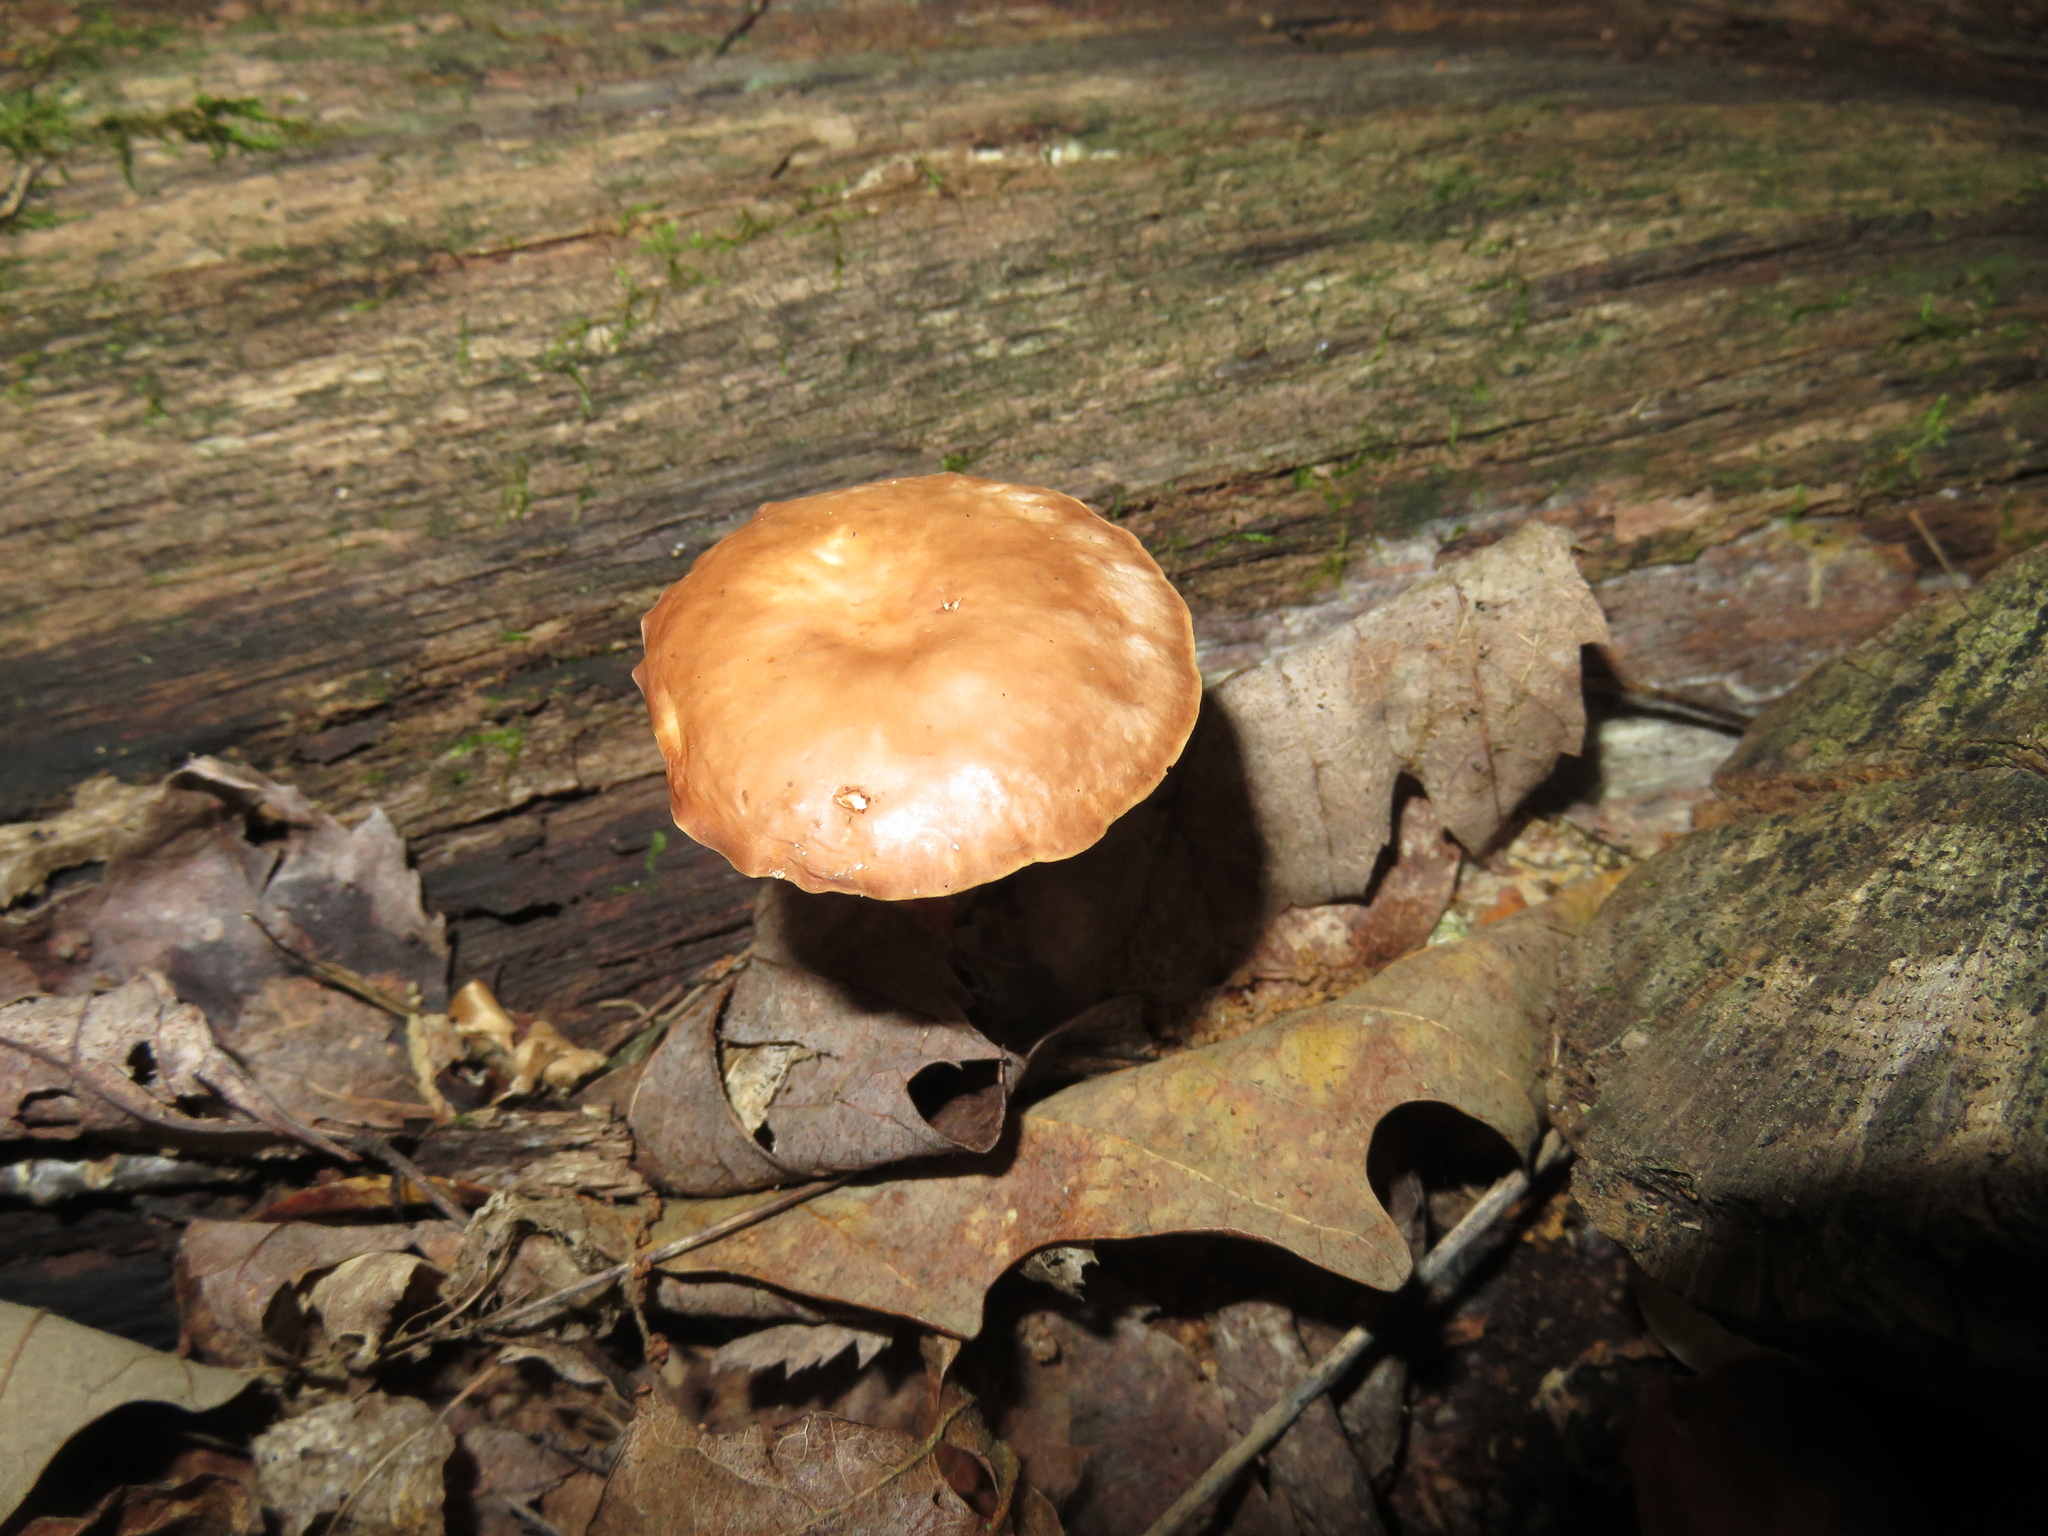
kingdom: Fungi
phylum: Basidiomycota
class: Agaricomycetes
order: Agaricales
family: Omphalotaceae
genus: Gymnopus
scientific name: Gymnopus dryophilus
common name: Penny top
